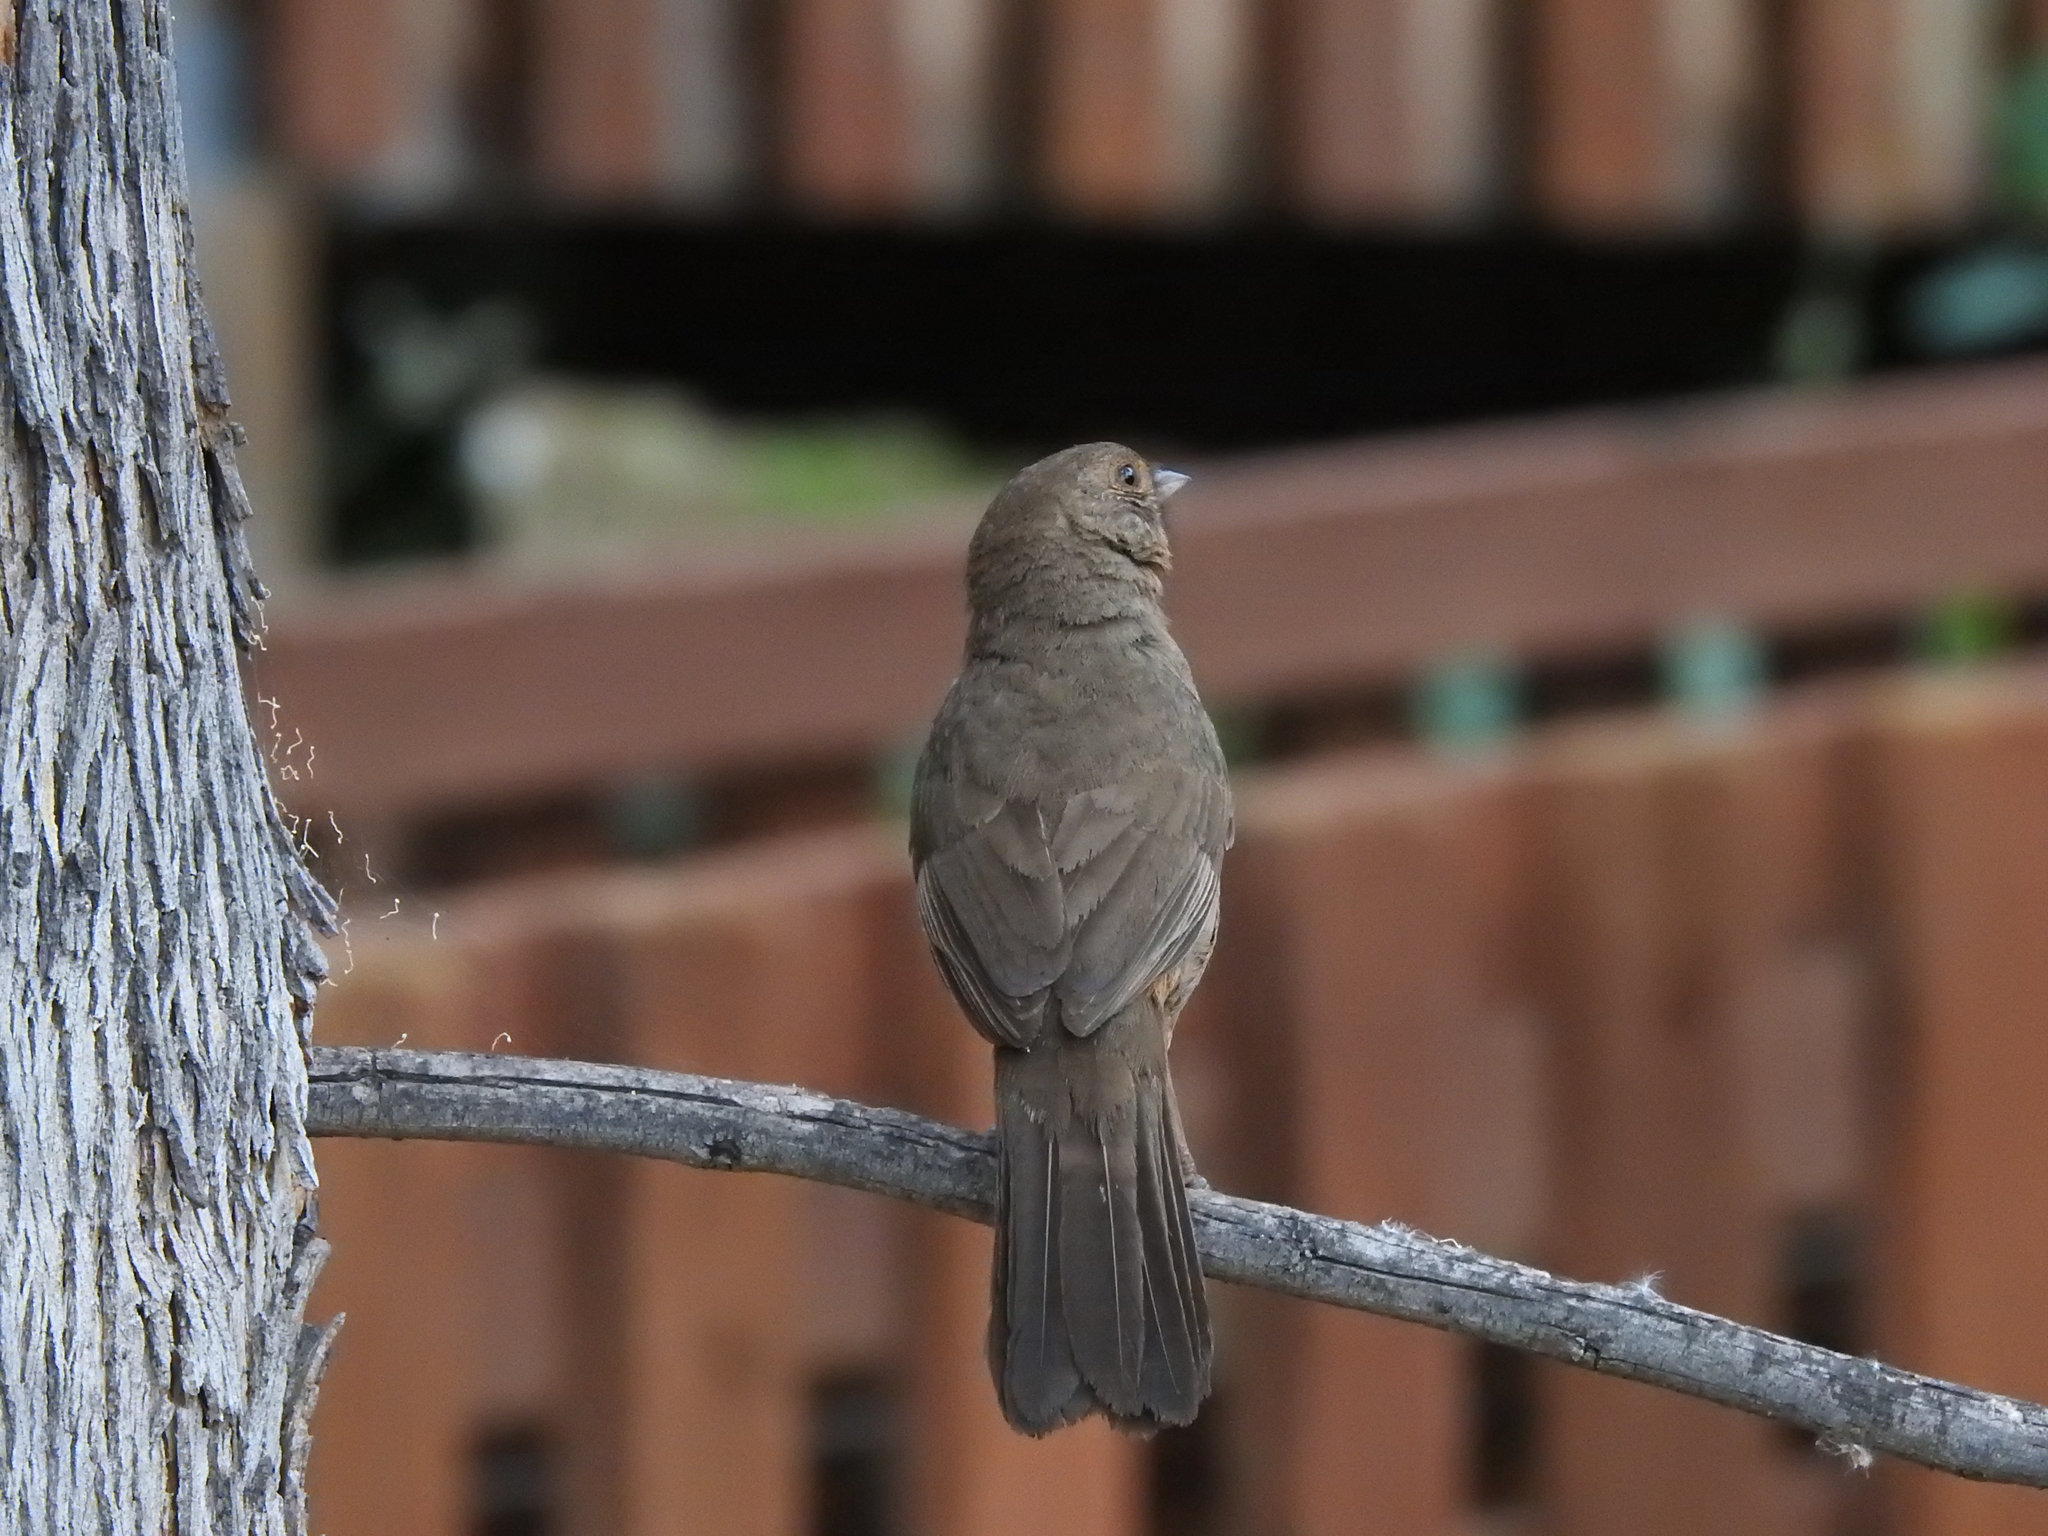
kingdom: Animalia
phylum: Chordata
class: Aves
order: Passeriformes
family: Passerellidae
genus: Melozone
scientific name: Melozone crissalis
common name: California towhee
